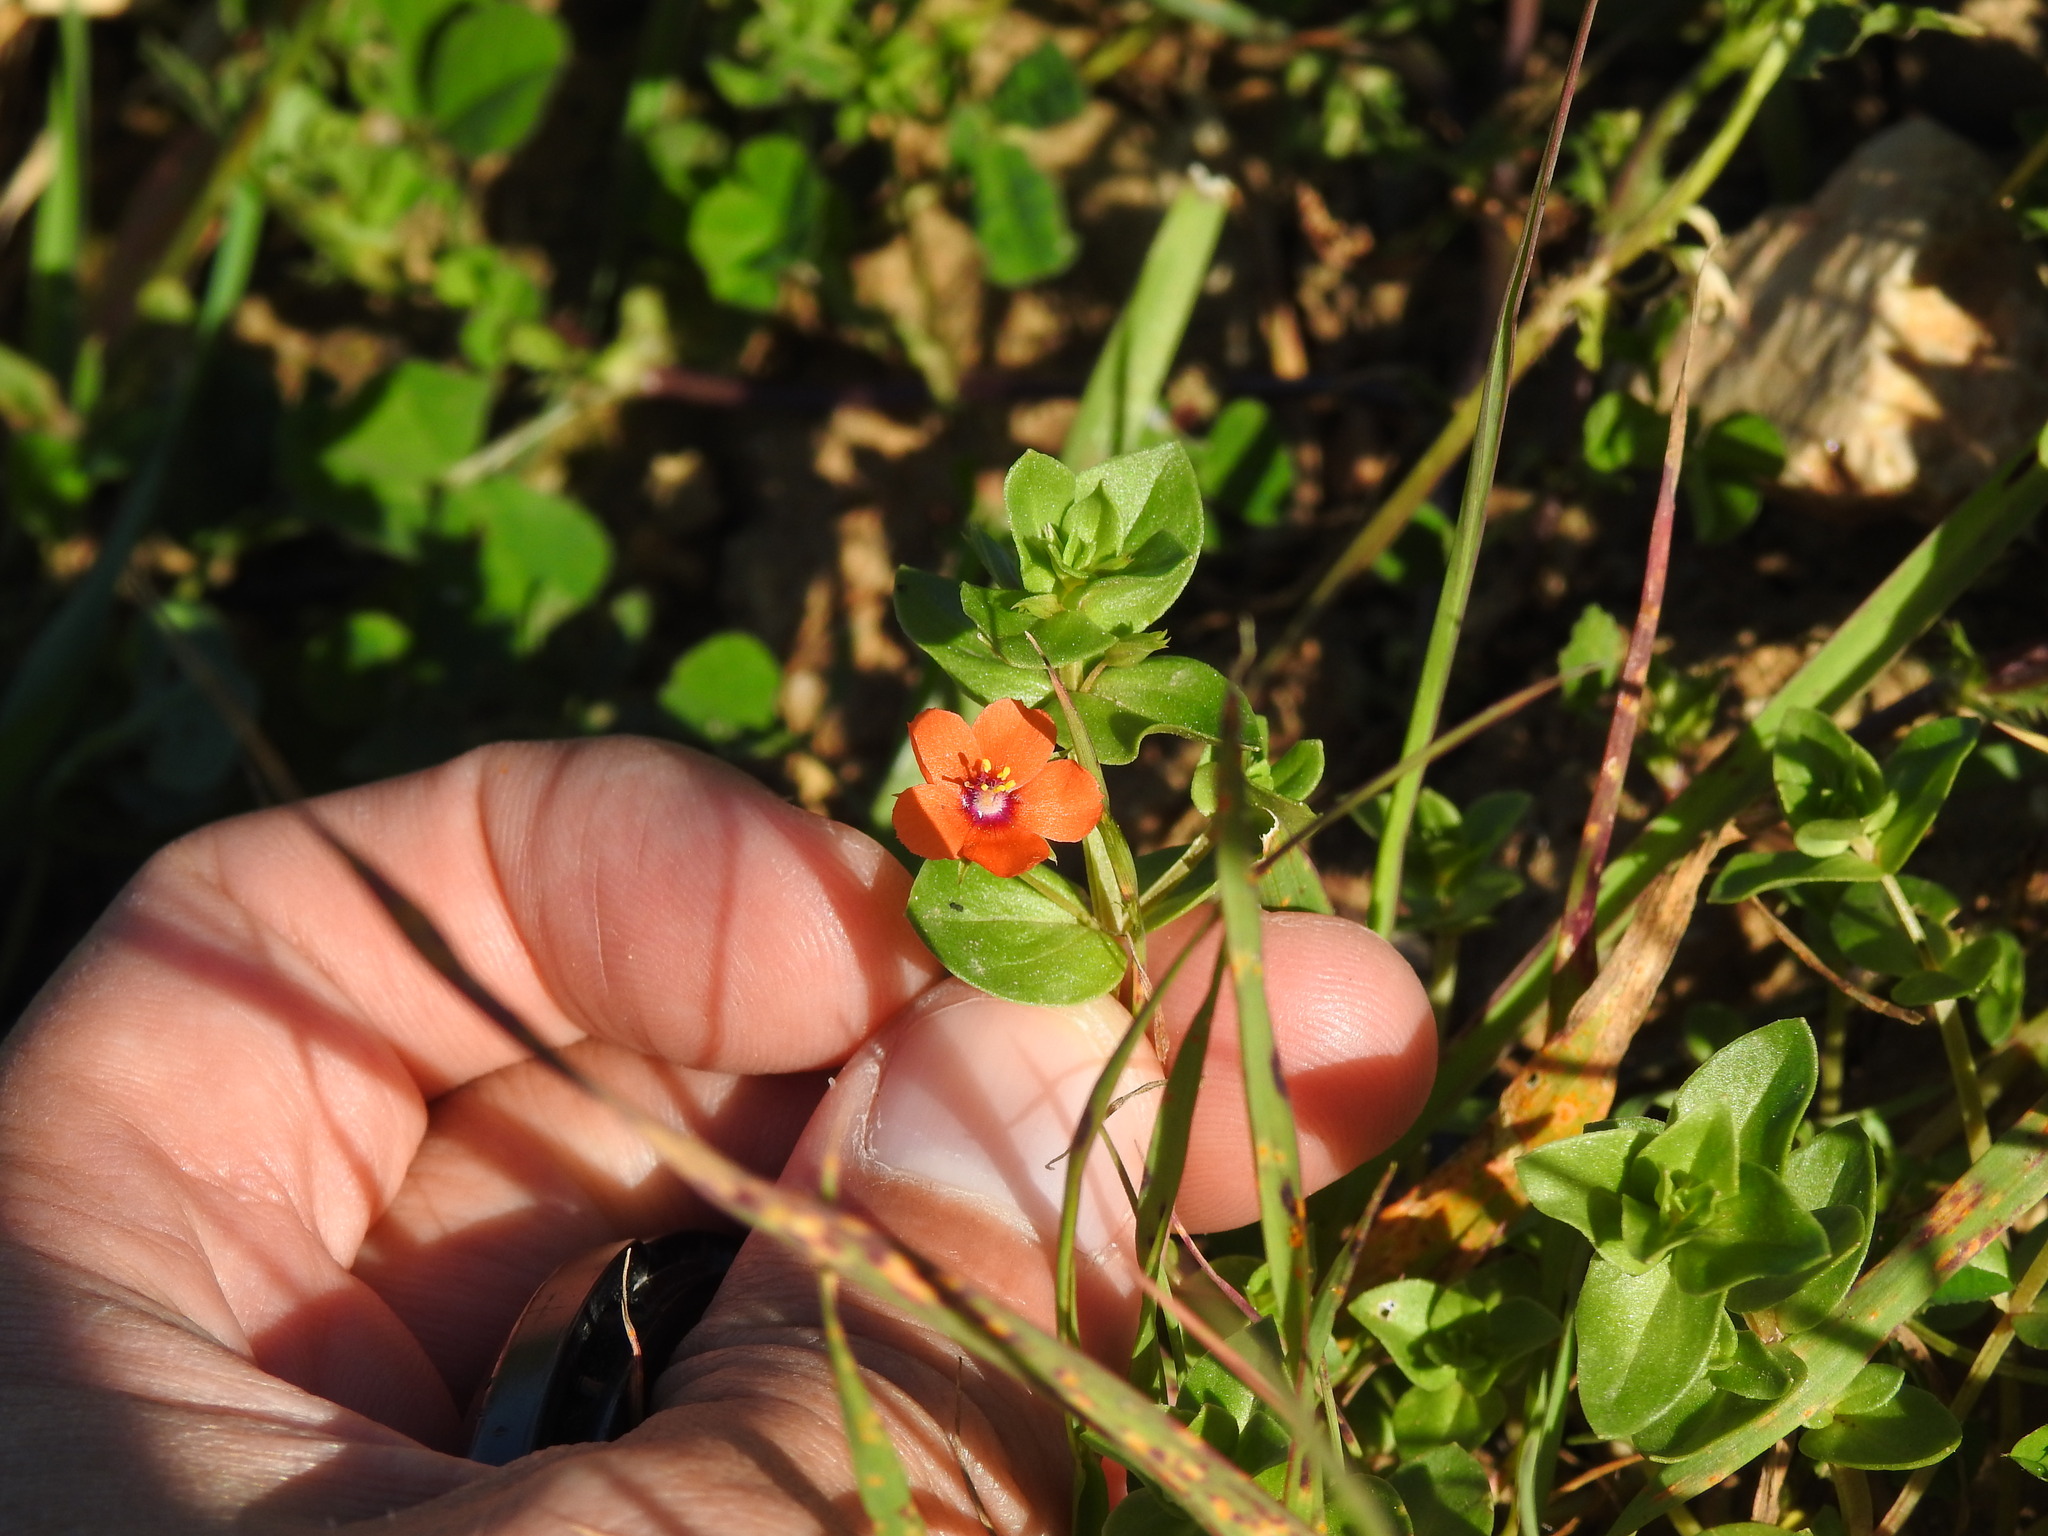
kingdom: Plantae
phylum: Tracheophyta
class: Magnoliopsida
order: Ericales
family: Primulaceae
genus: Lysimachia
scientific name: Lysimachia arvensis
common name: Scarlet pimpernel
